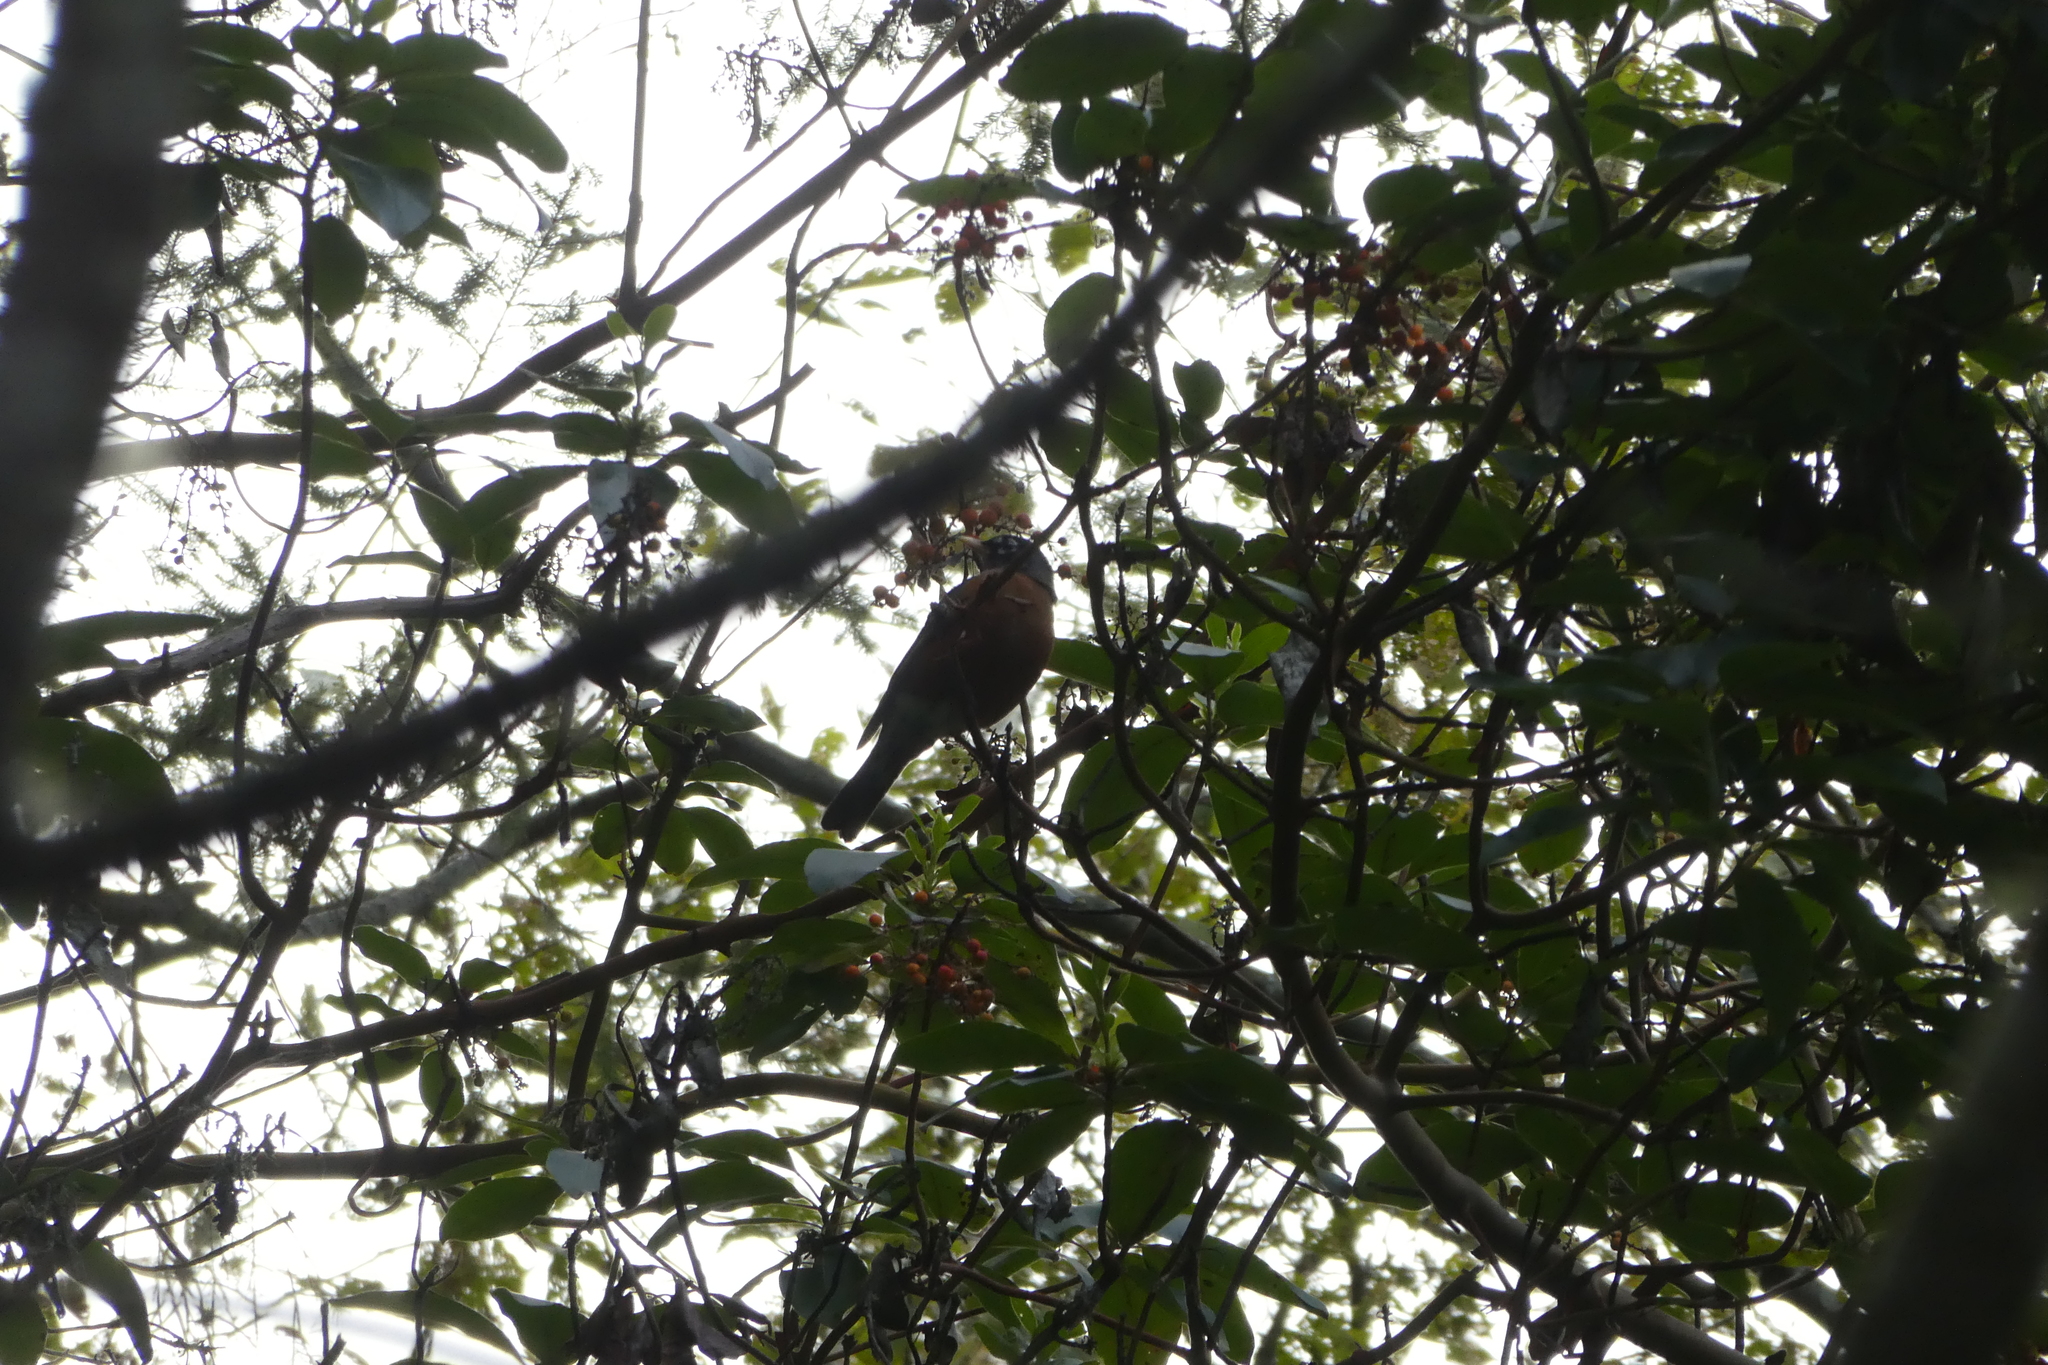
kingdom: Animalia
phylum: Chordata
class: Aves
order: Passeriformes
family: Turdidae
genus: Turdus
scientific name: Turdus migratorius
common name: American robin
